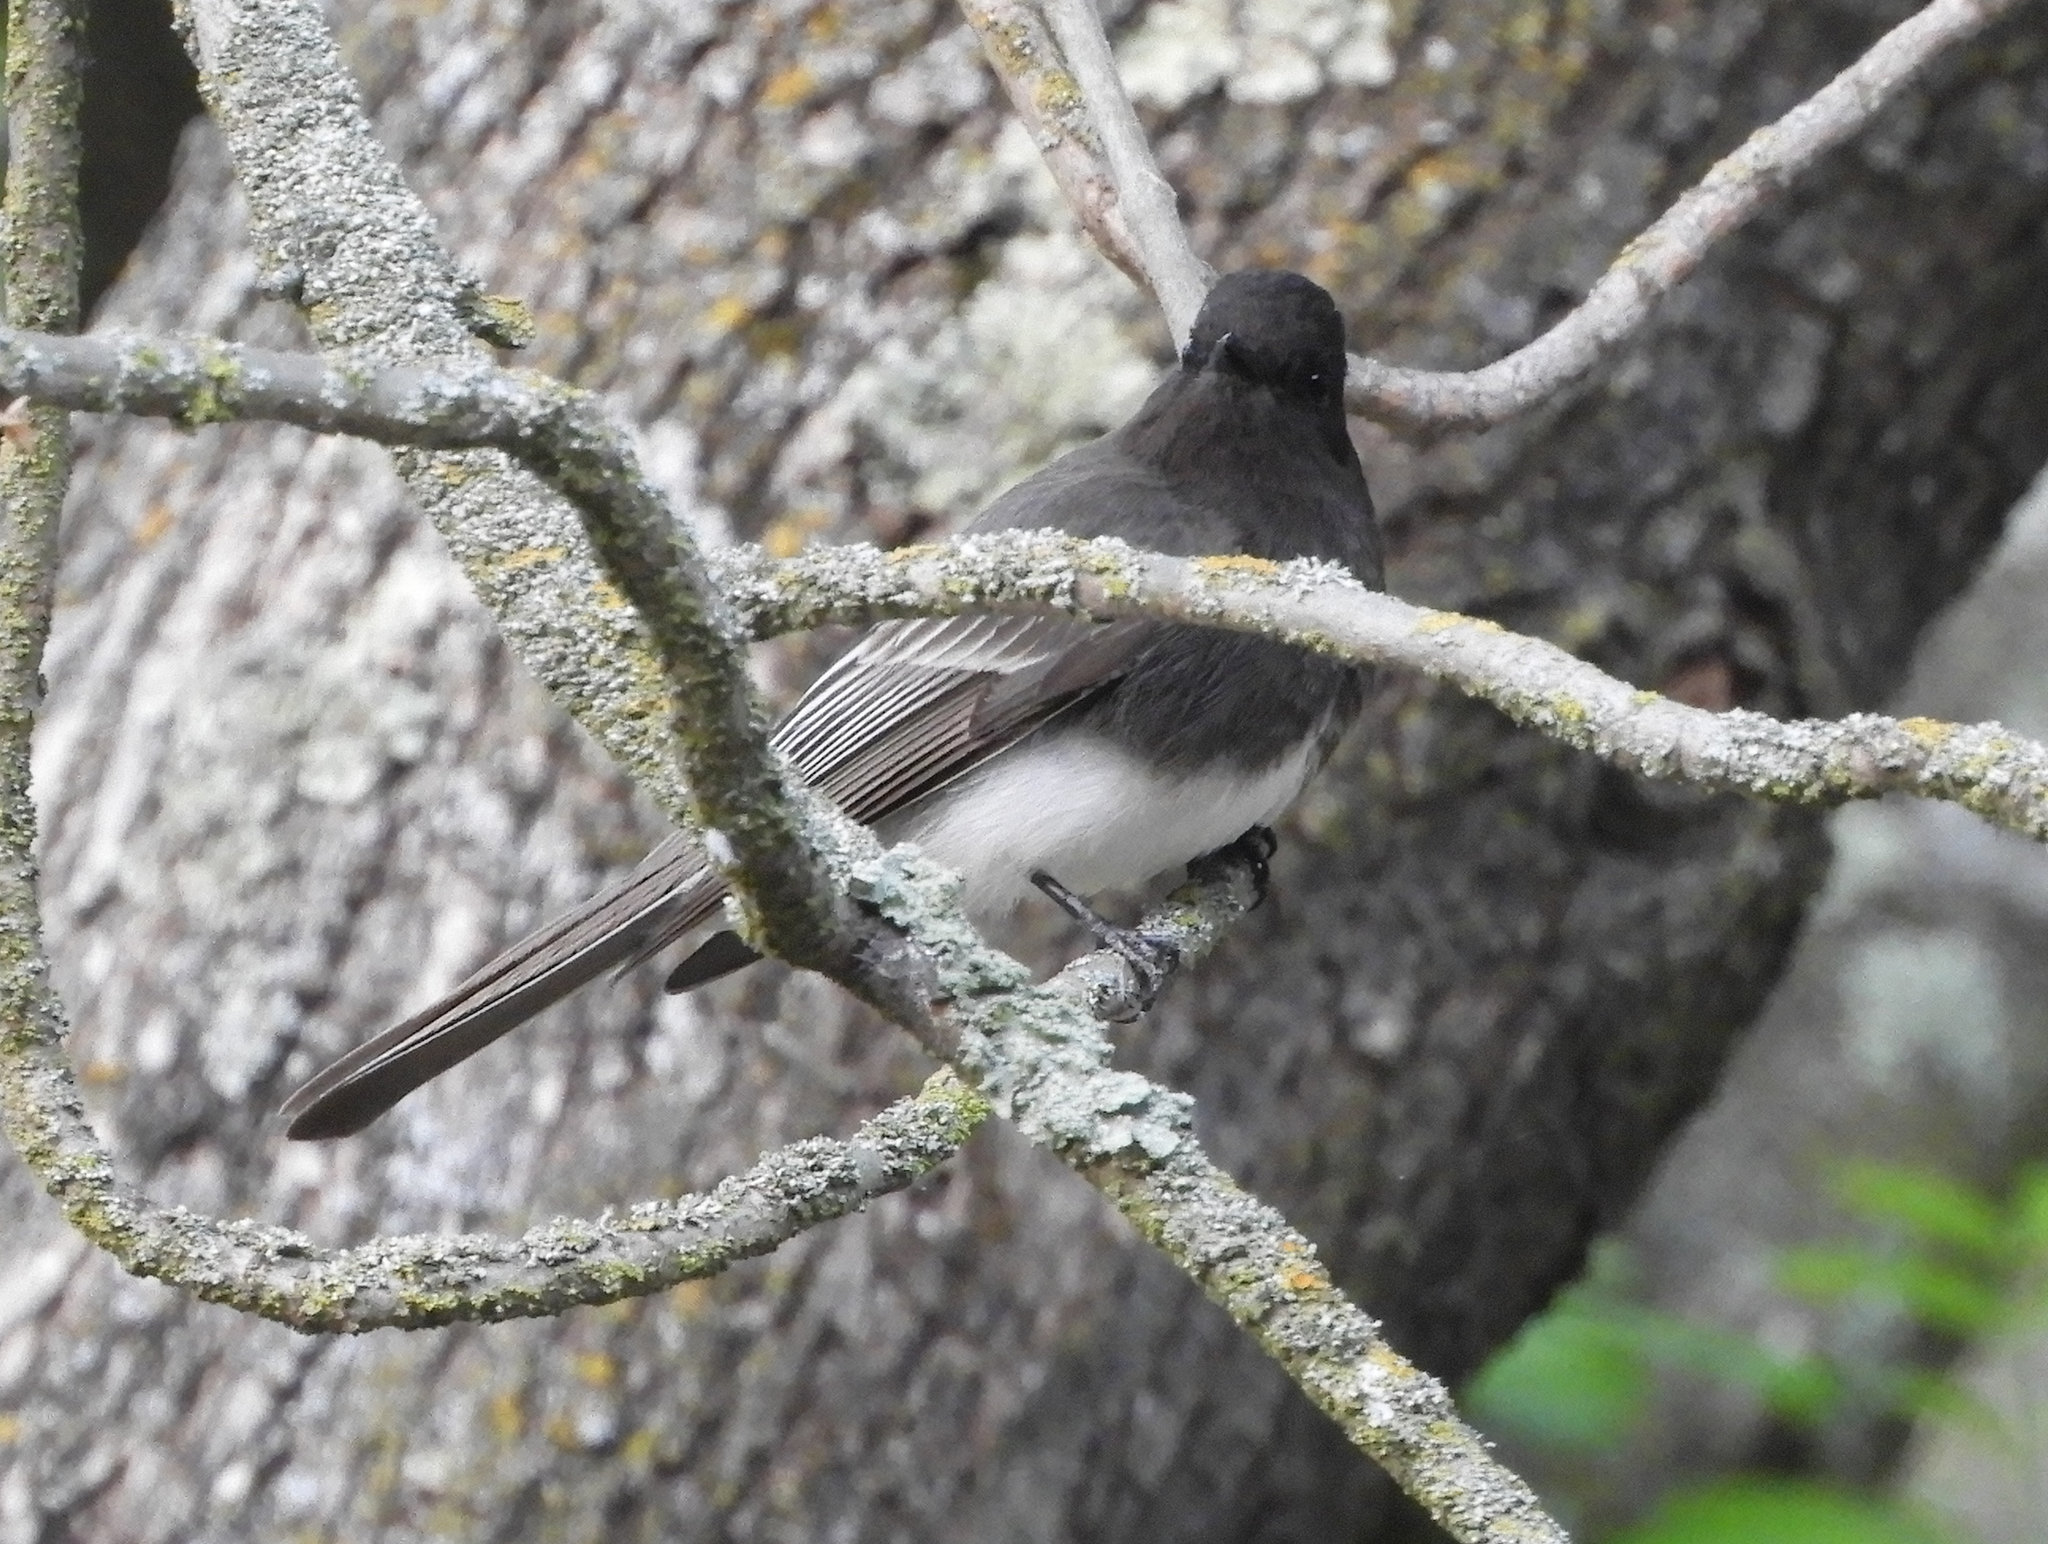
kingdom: Animalia
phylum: Chordata
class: Aves
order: Passeriformes
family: Tyrannidae
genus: Sayornis
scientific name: Sayornis nigricans
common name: Black phoebe
